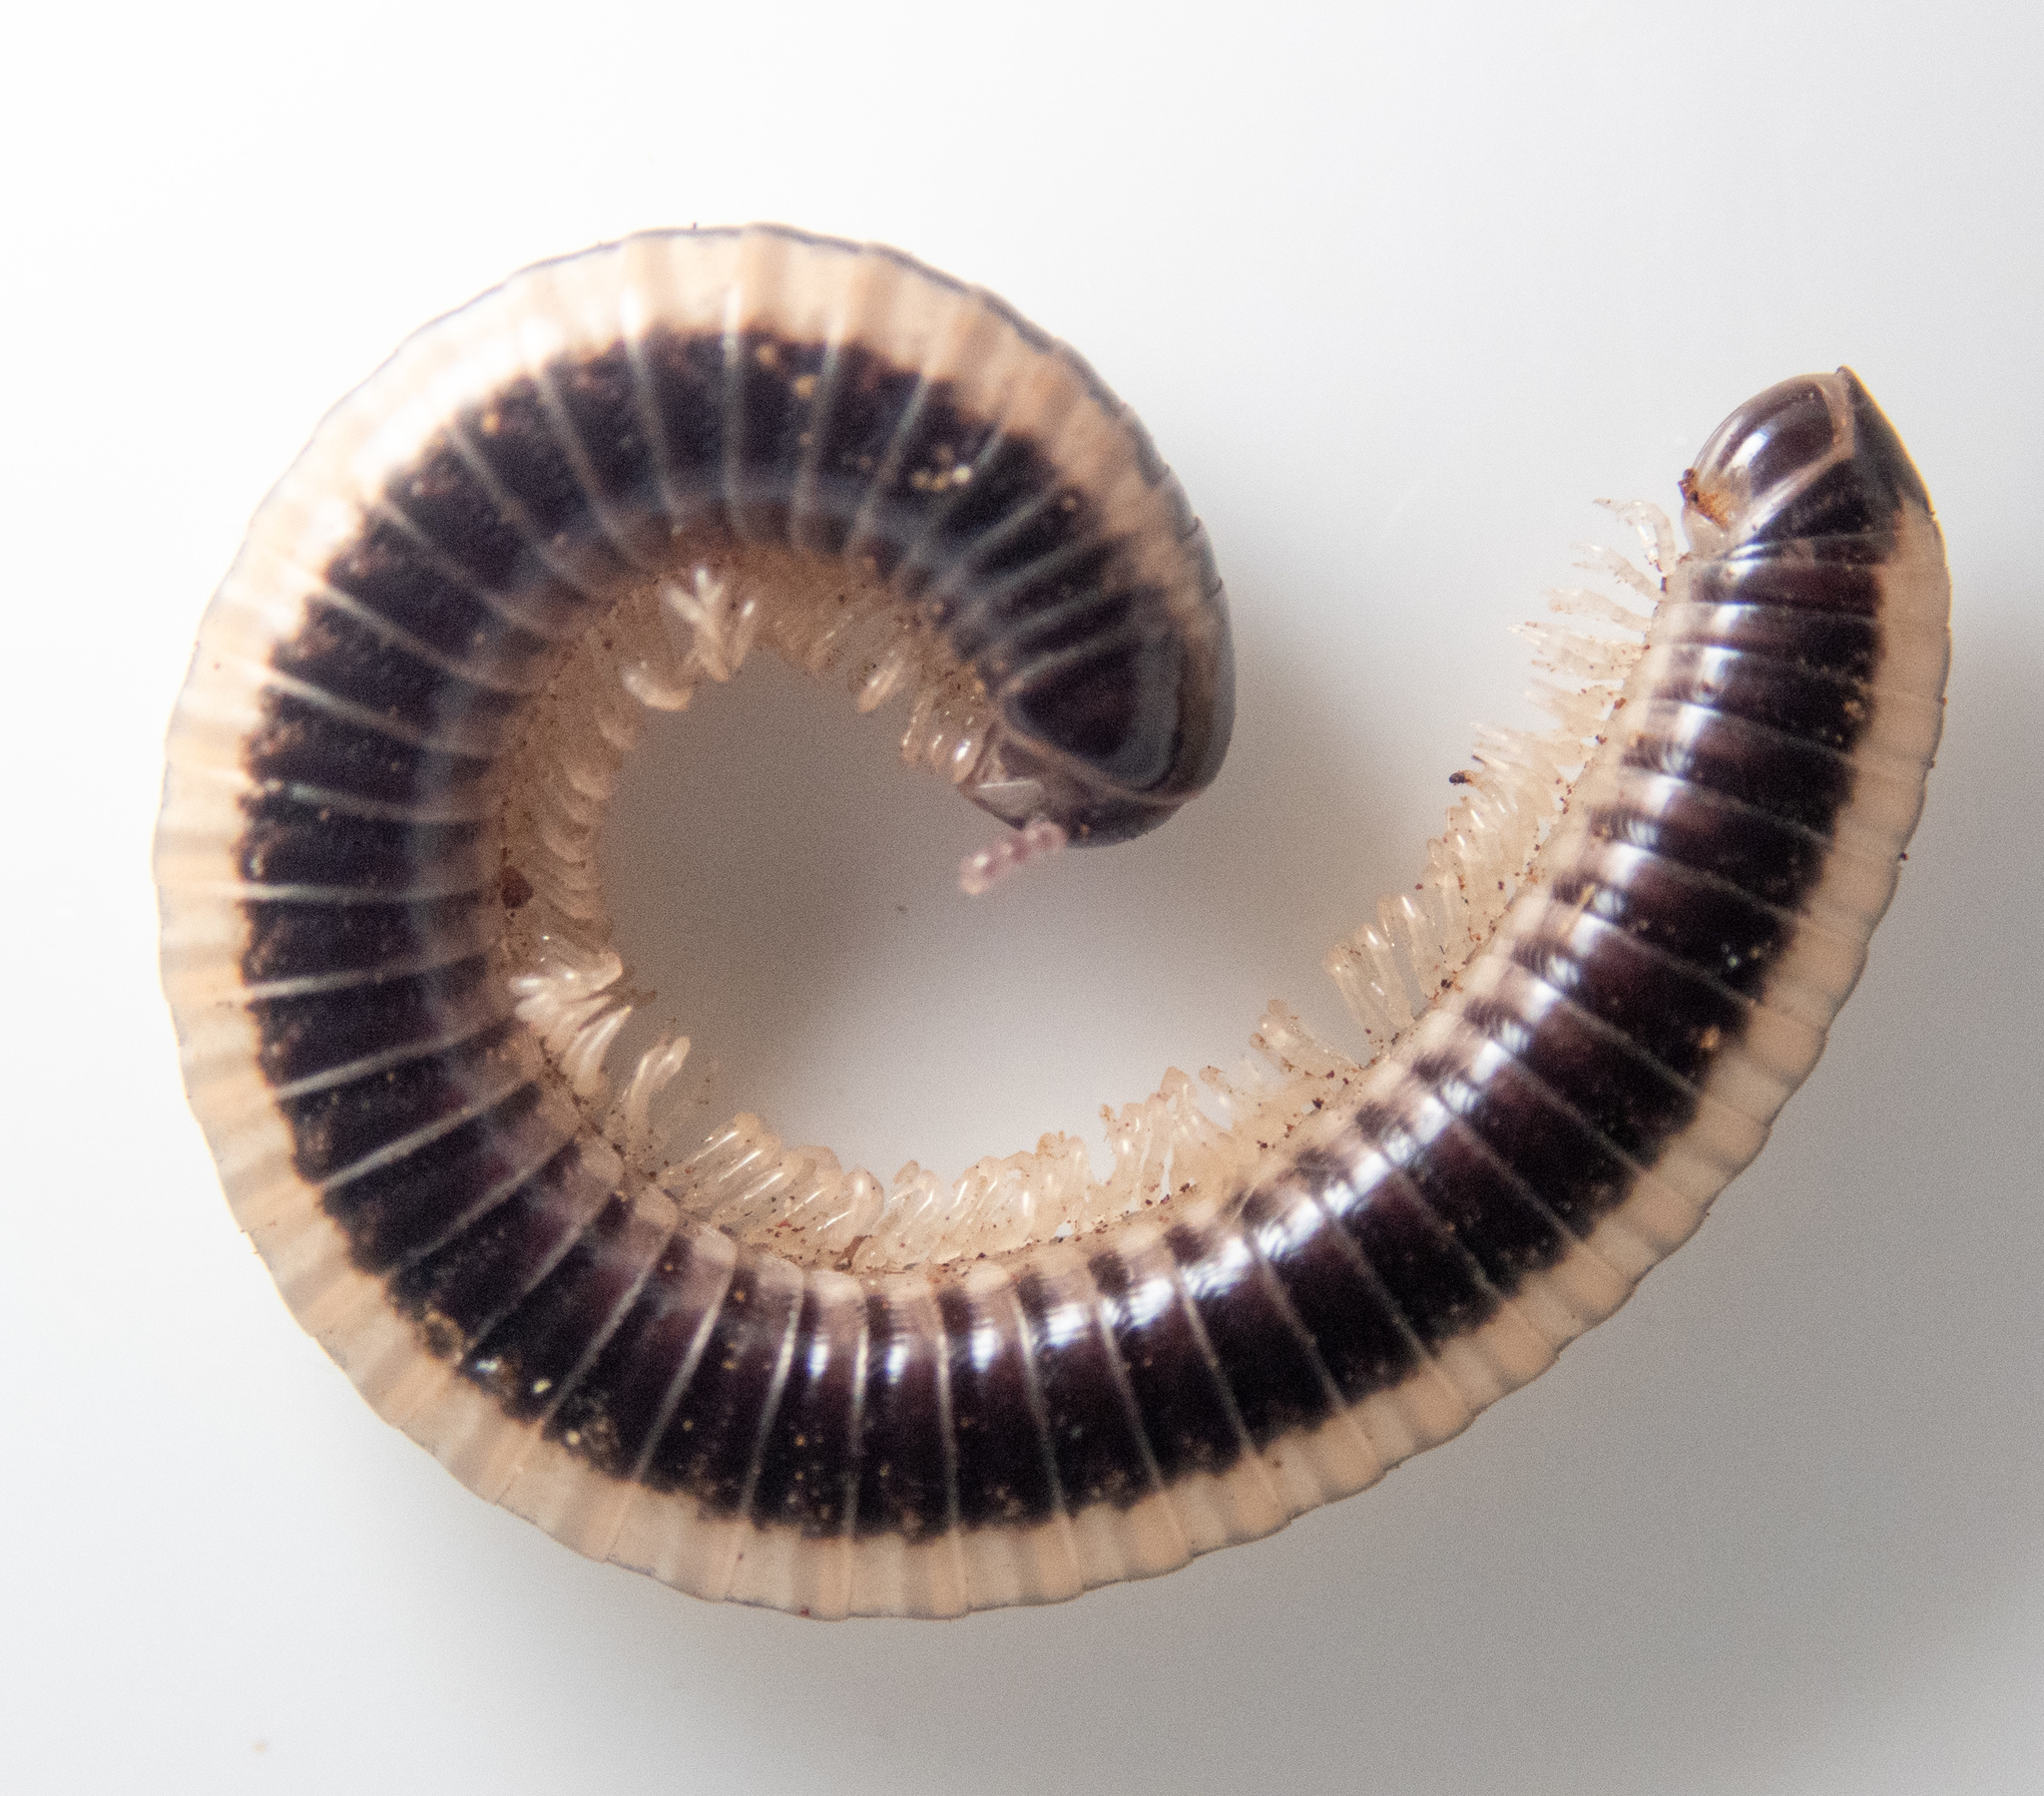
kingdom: Animalia
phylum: Arthropoda
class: Diplopoda
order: Spirobolida
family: Spirobolellidae
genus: Spirobolellus
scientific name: Spirobolellus immigrans
